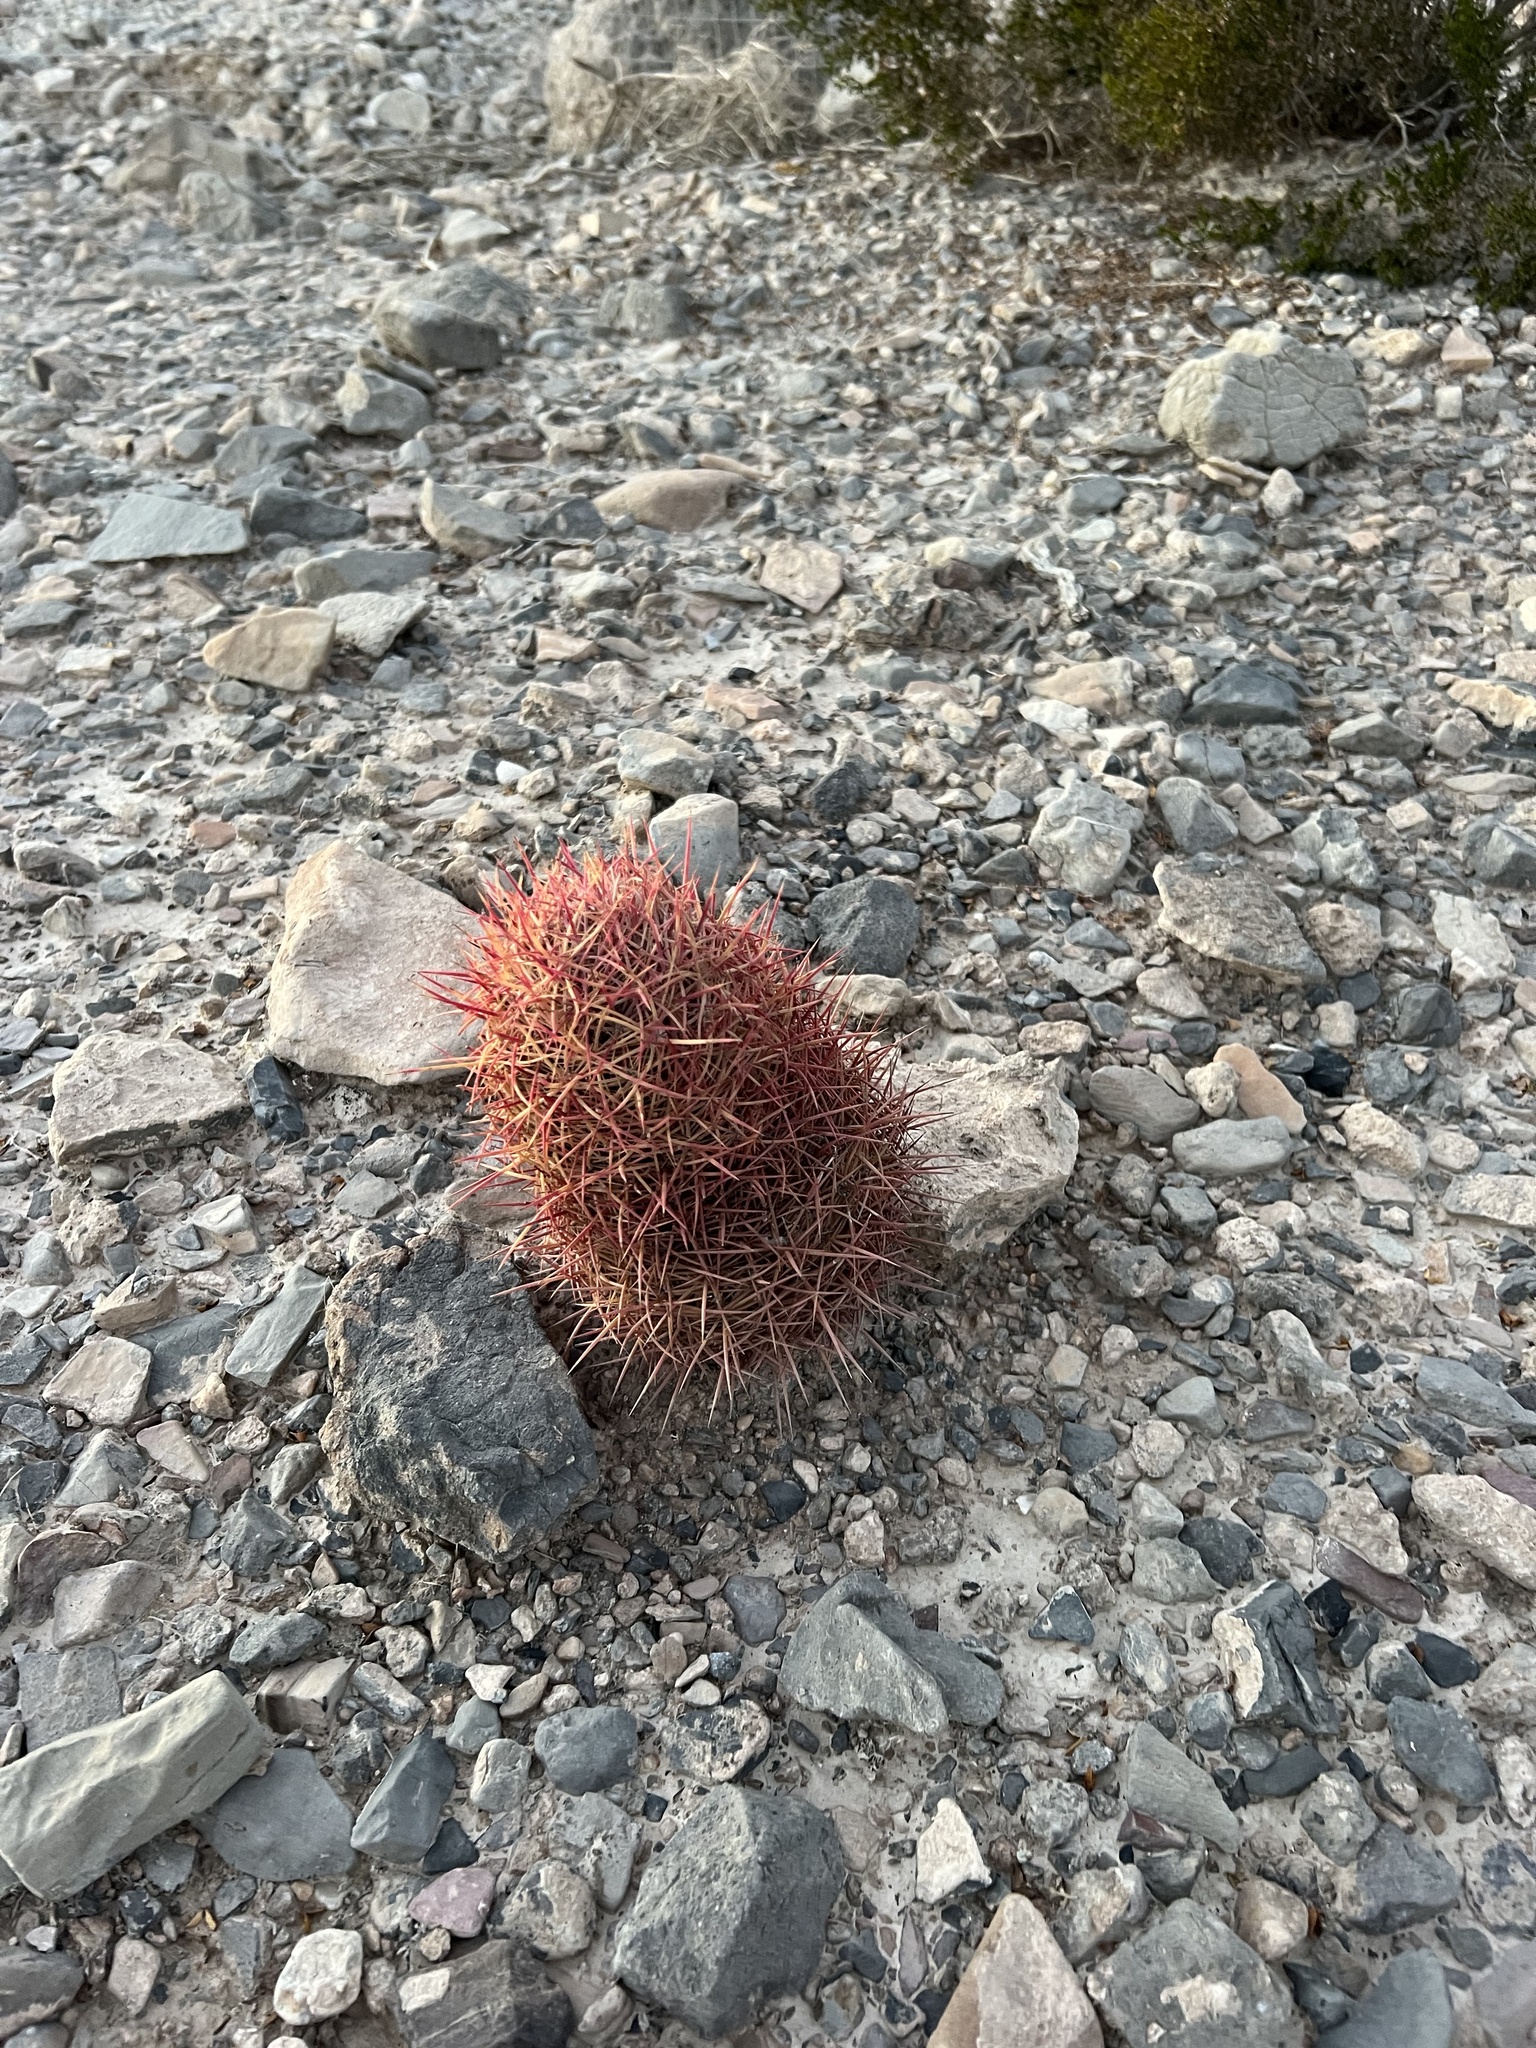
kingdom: Plantae
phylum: Tracheophyta
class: Magnoliopsida
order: Caryophyllales
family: Cactaceae
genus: Sclerocactus
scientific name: Sclerocactus johnsonii
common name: Eight-spine fishhook cactus
